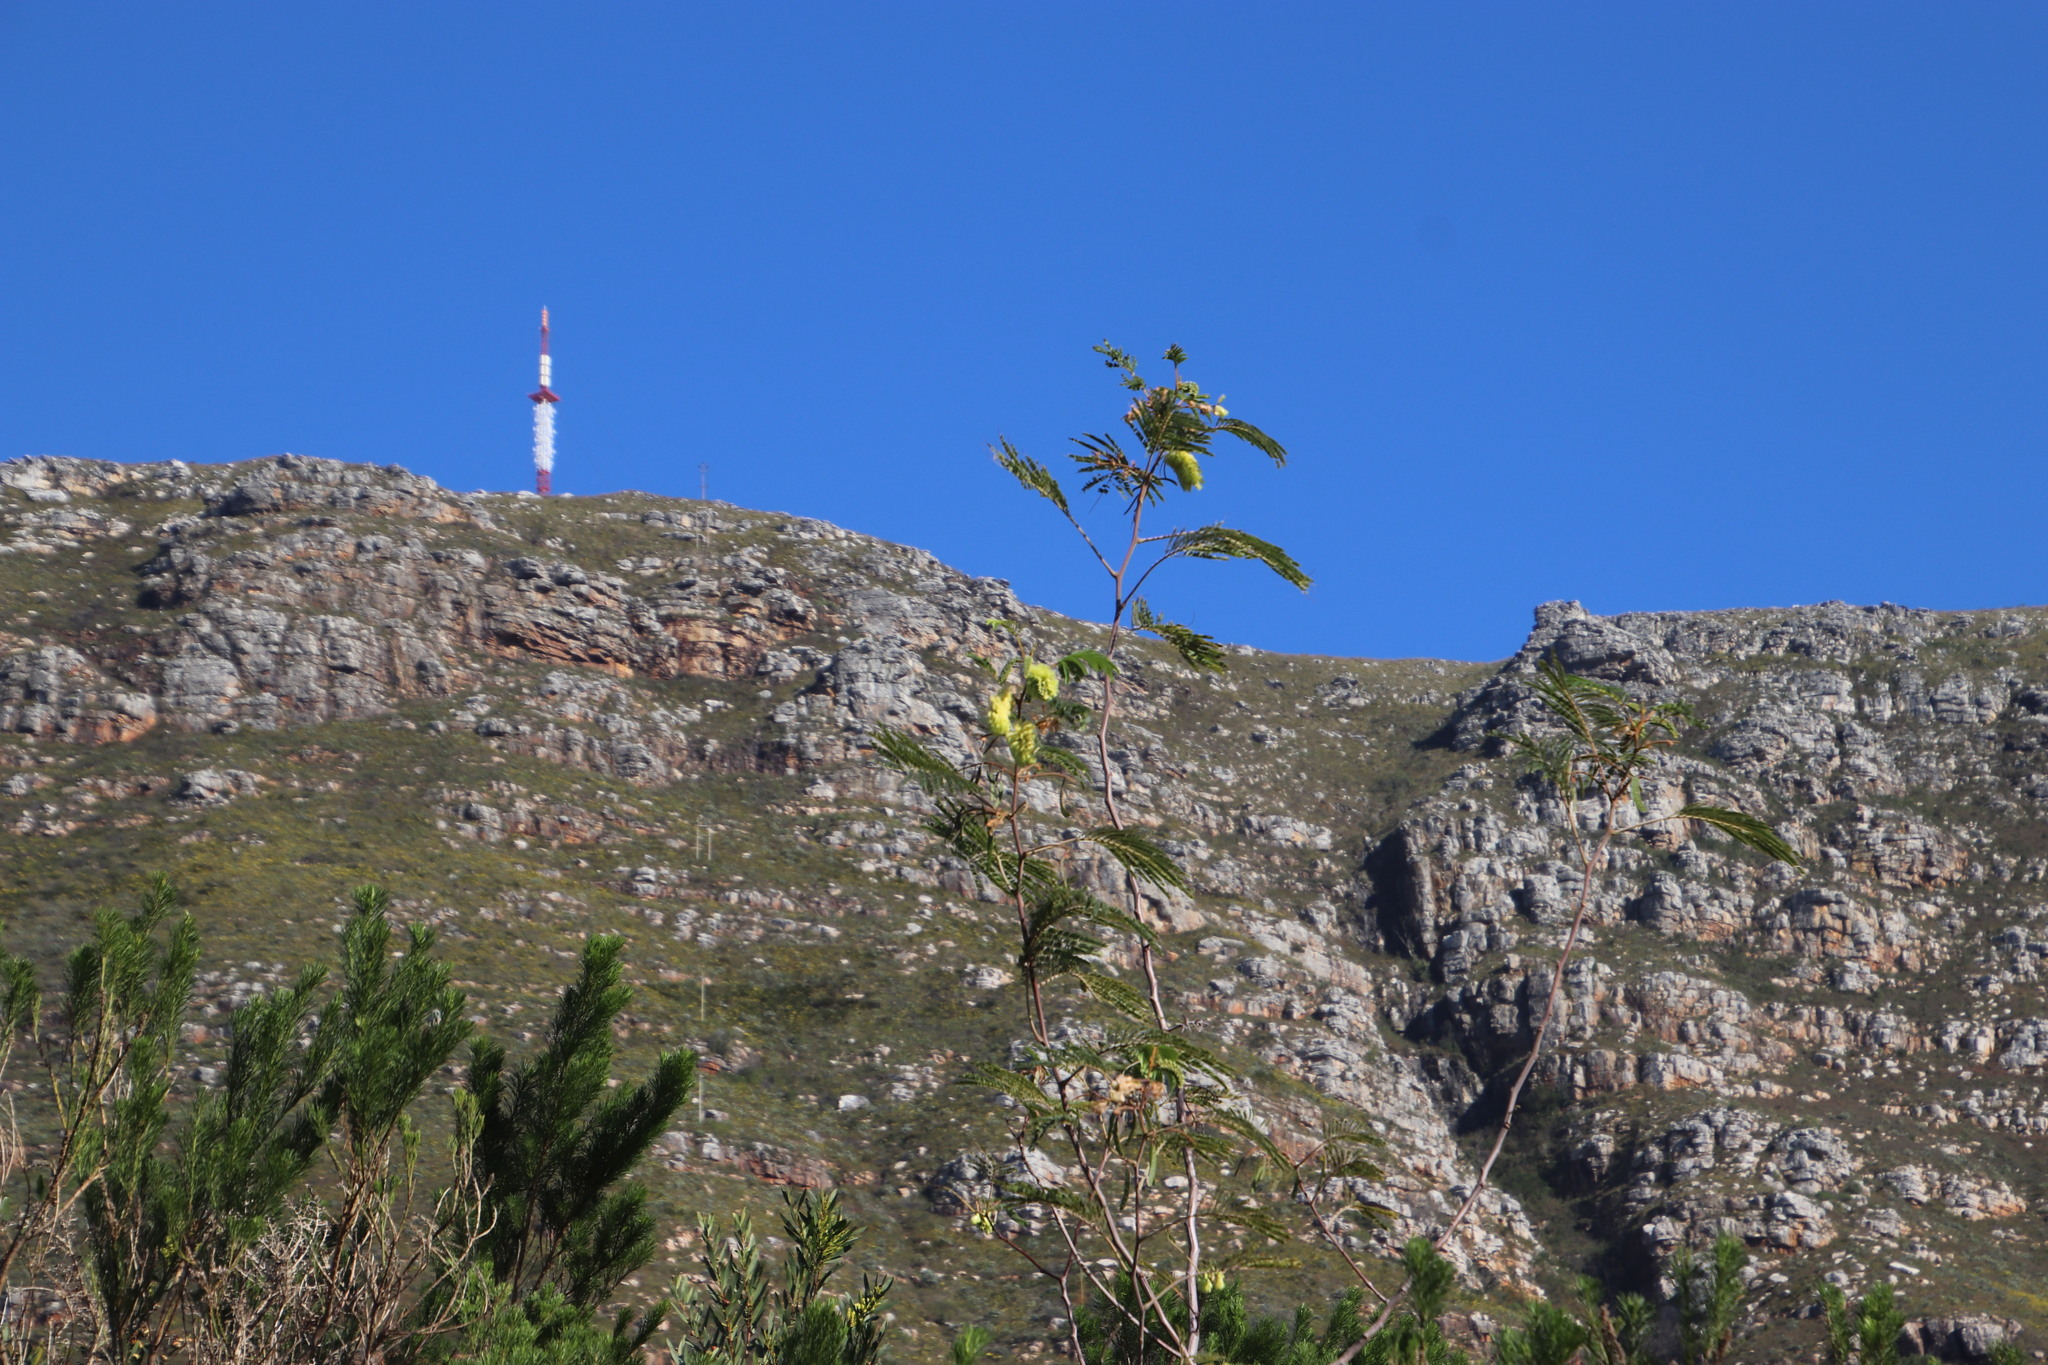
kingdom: Plantae
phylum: Tracheophyta
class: Magnoliopsida
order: Fabales
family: Fabaceae
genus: Paraserianthes
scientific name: Paraserianthes lophantha
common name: Plume albizia
